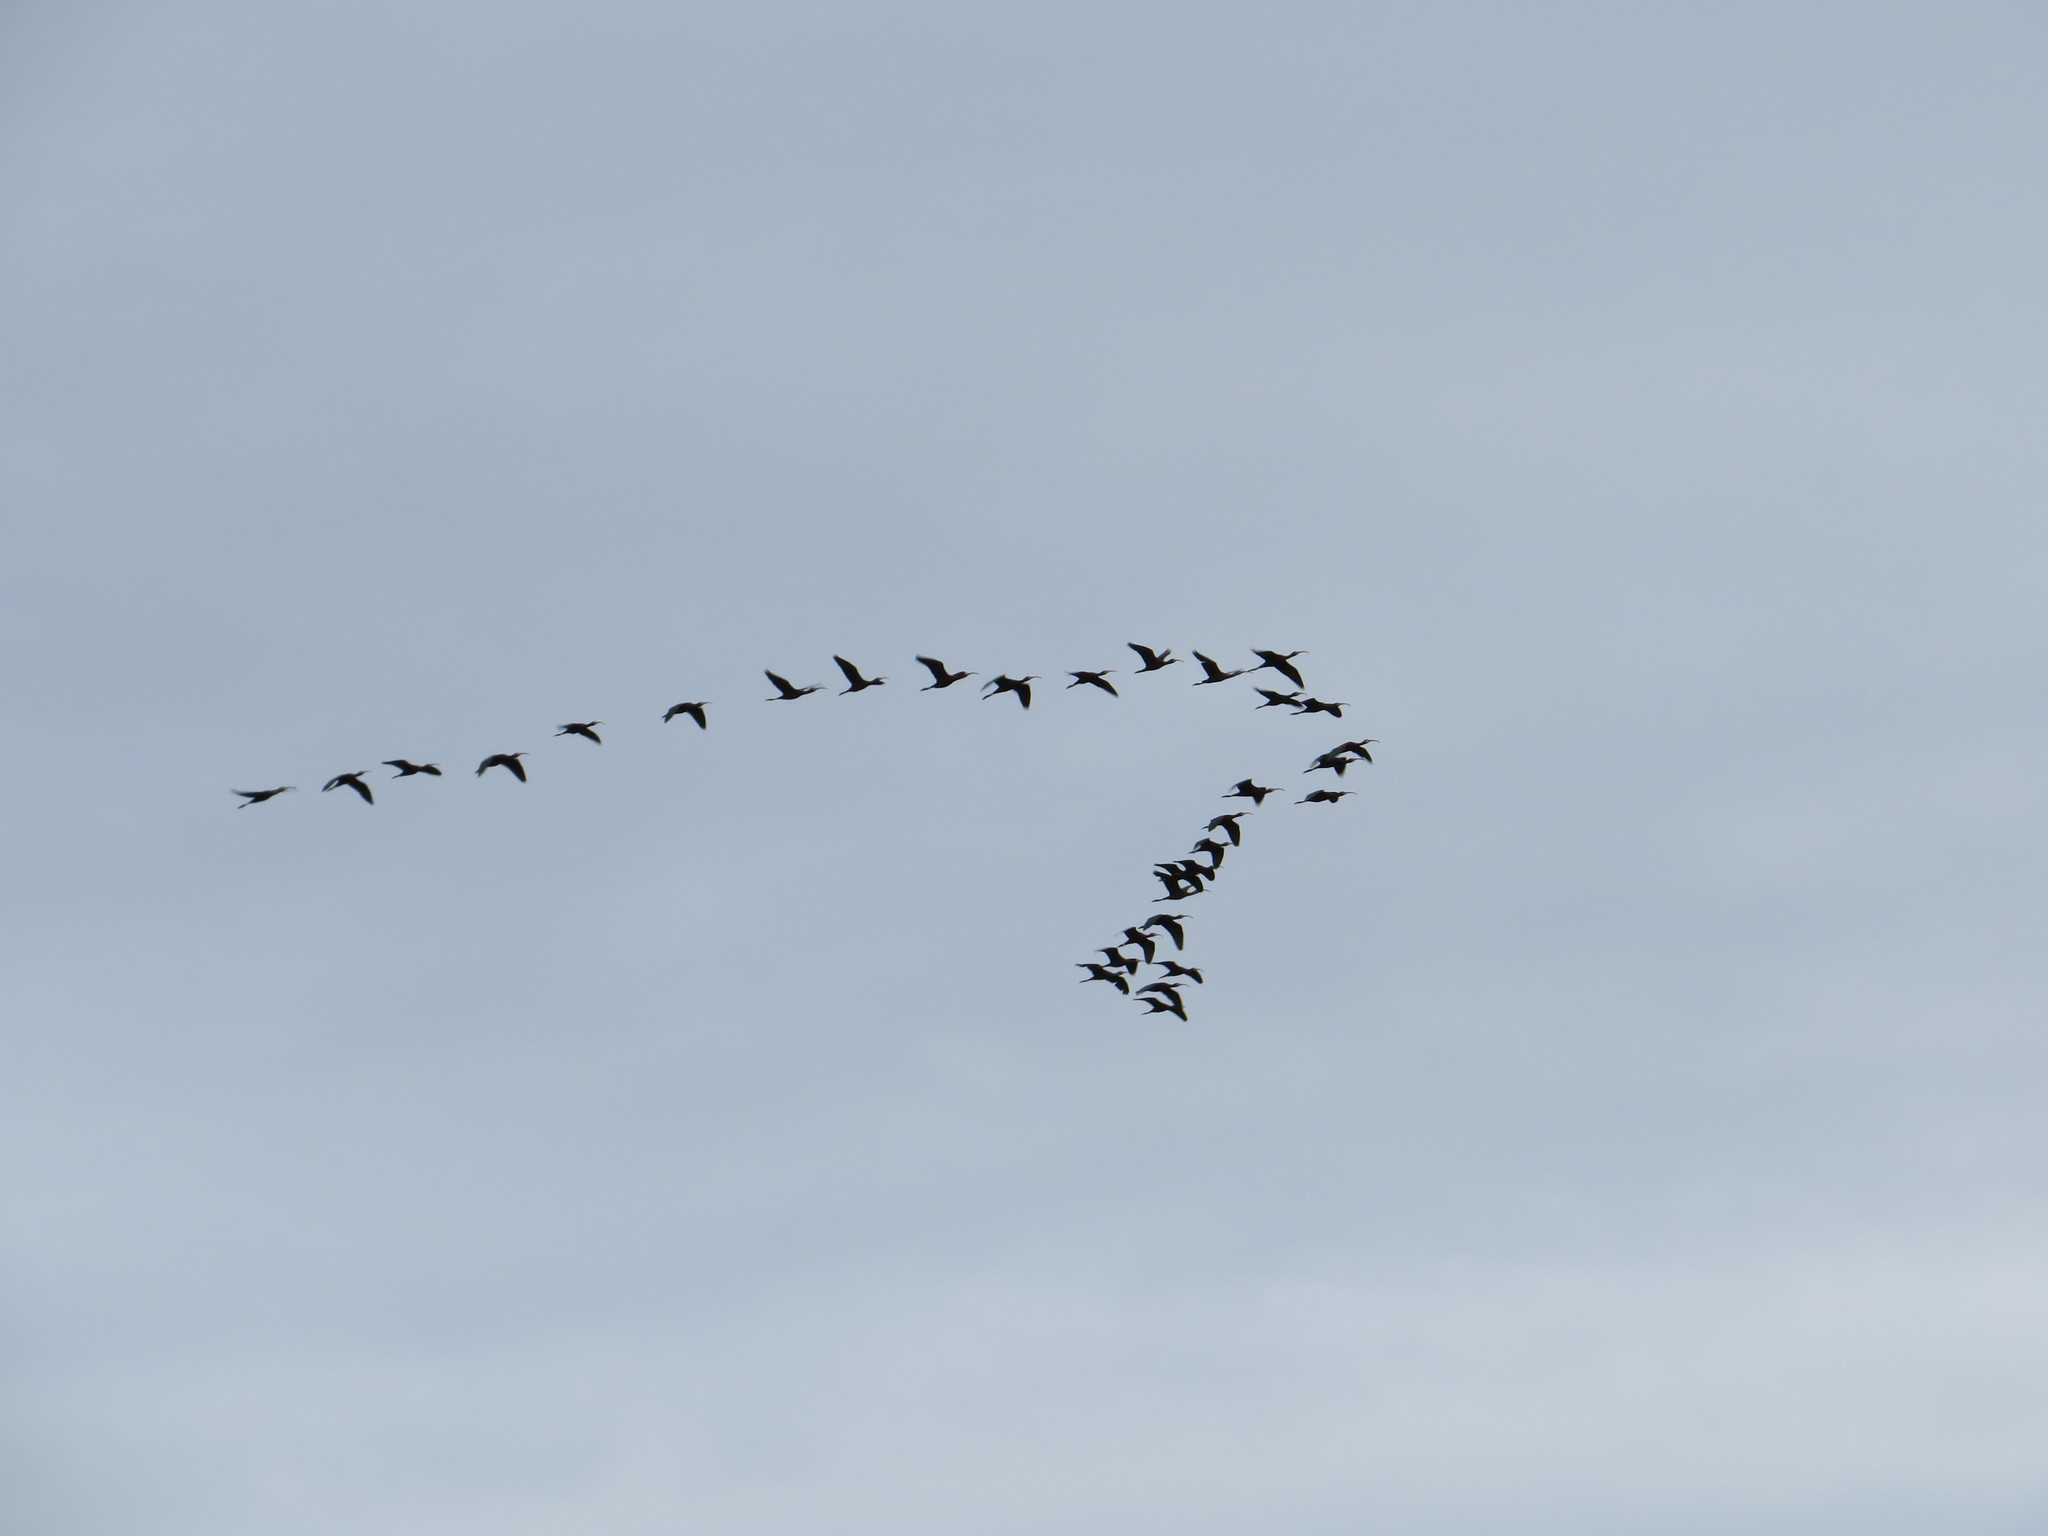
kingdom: Animalia
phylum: Chordata
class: Aves
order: Pelecaniformes
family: Threskiornithidae
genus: Plegadis
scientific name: Plegadis chihi
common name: White-faced ibis
